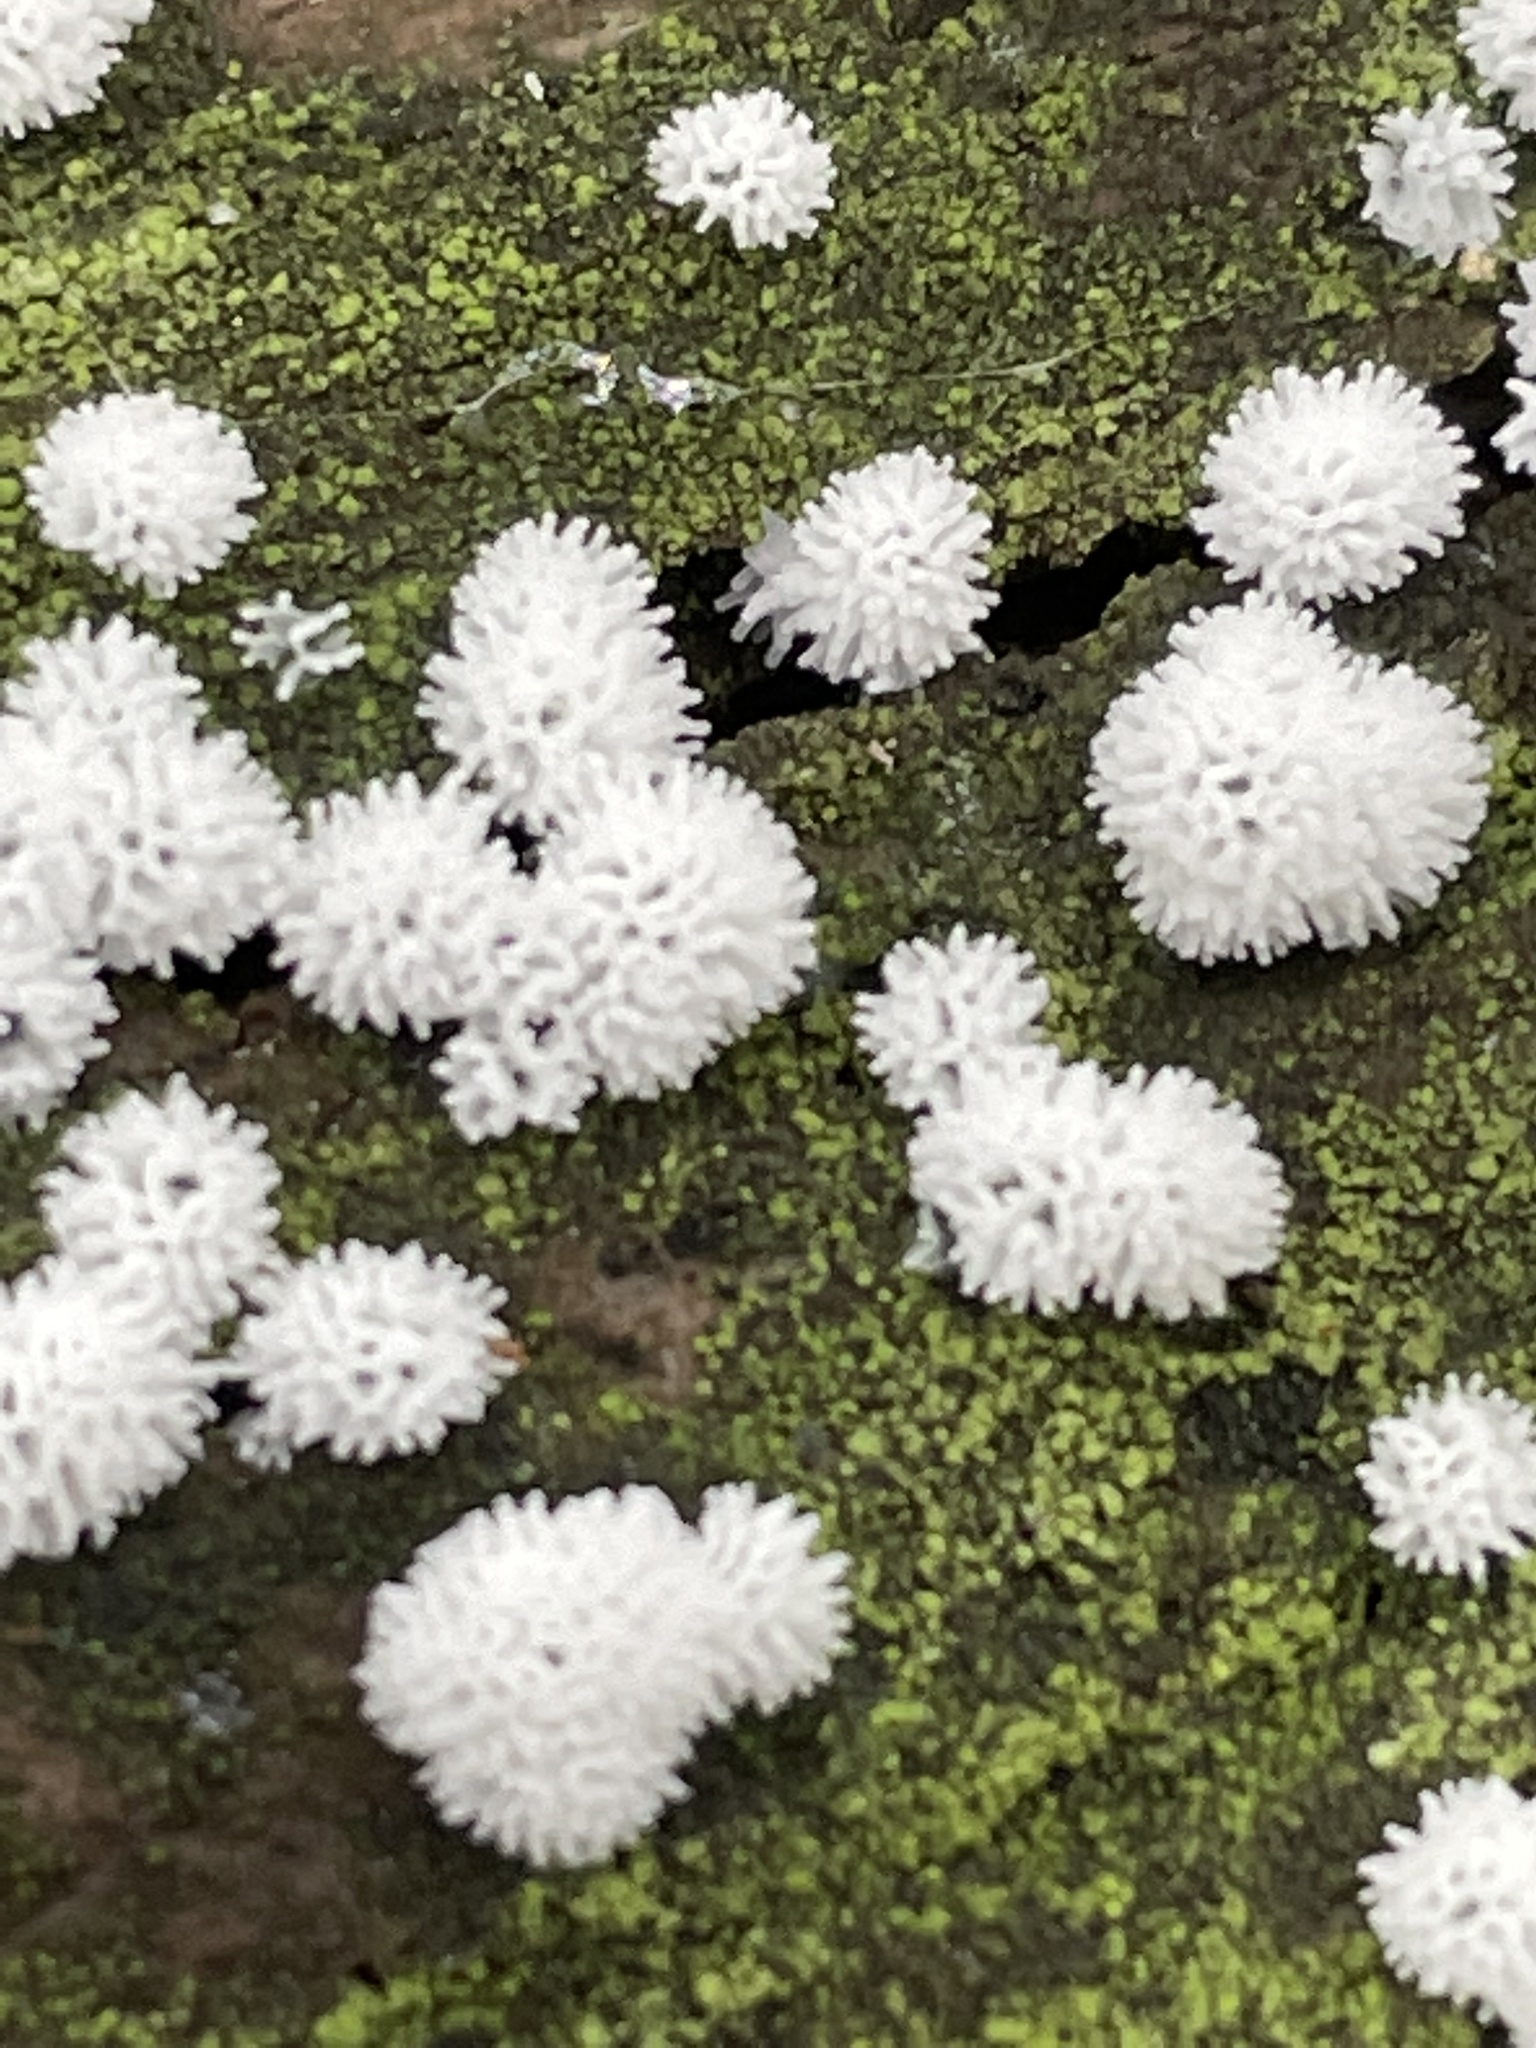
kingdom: Protozoa
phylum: Mycetozoa
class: Protosteliomycetes
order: Ceratiomyxales
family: Ceratiomyxaceae
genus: Ceratiomyxa
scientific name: Ceratiomyxa fruticulosa
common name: Honeycomb coral slime mold
